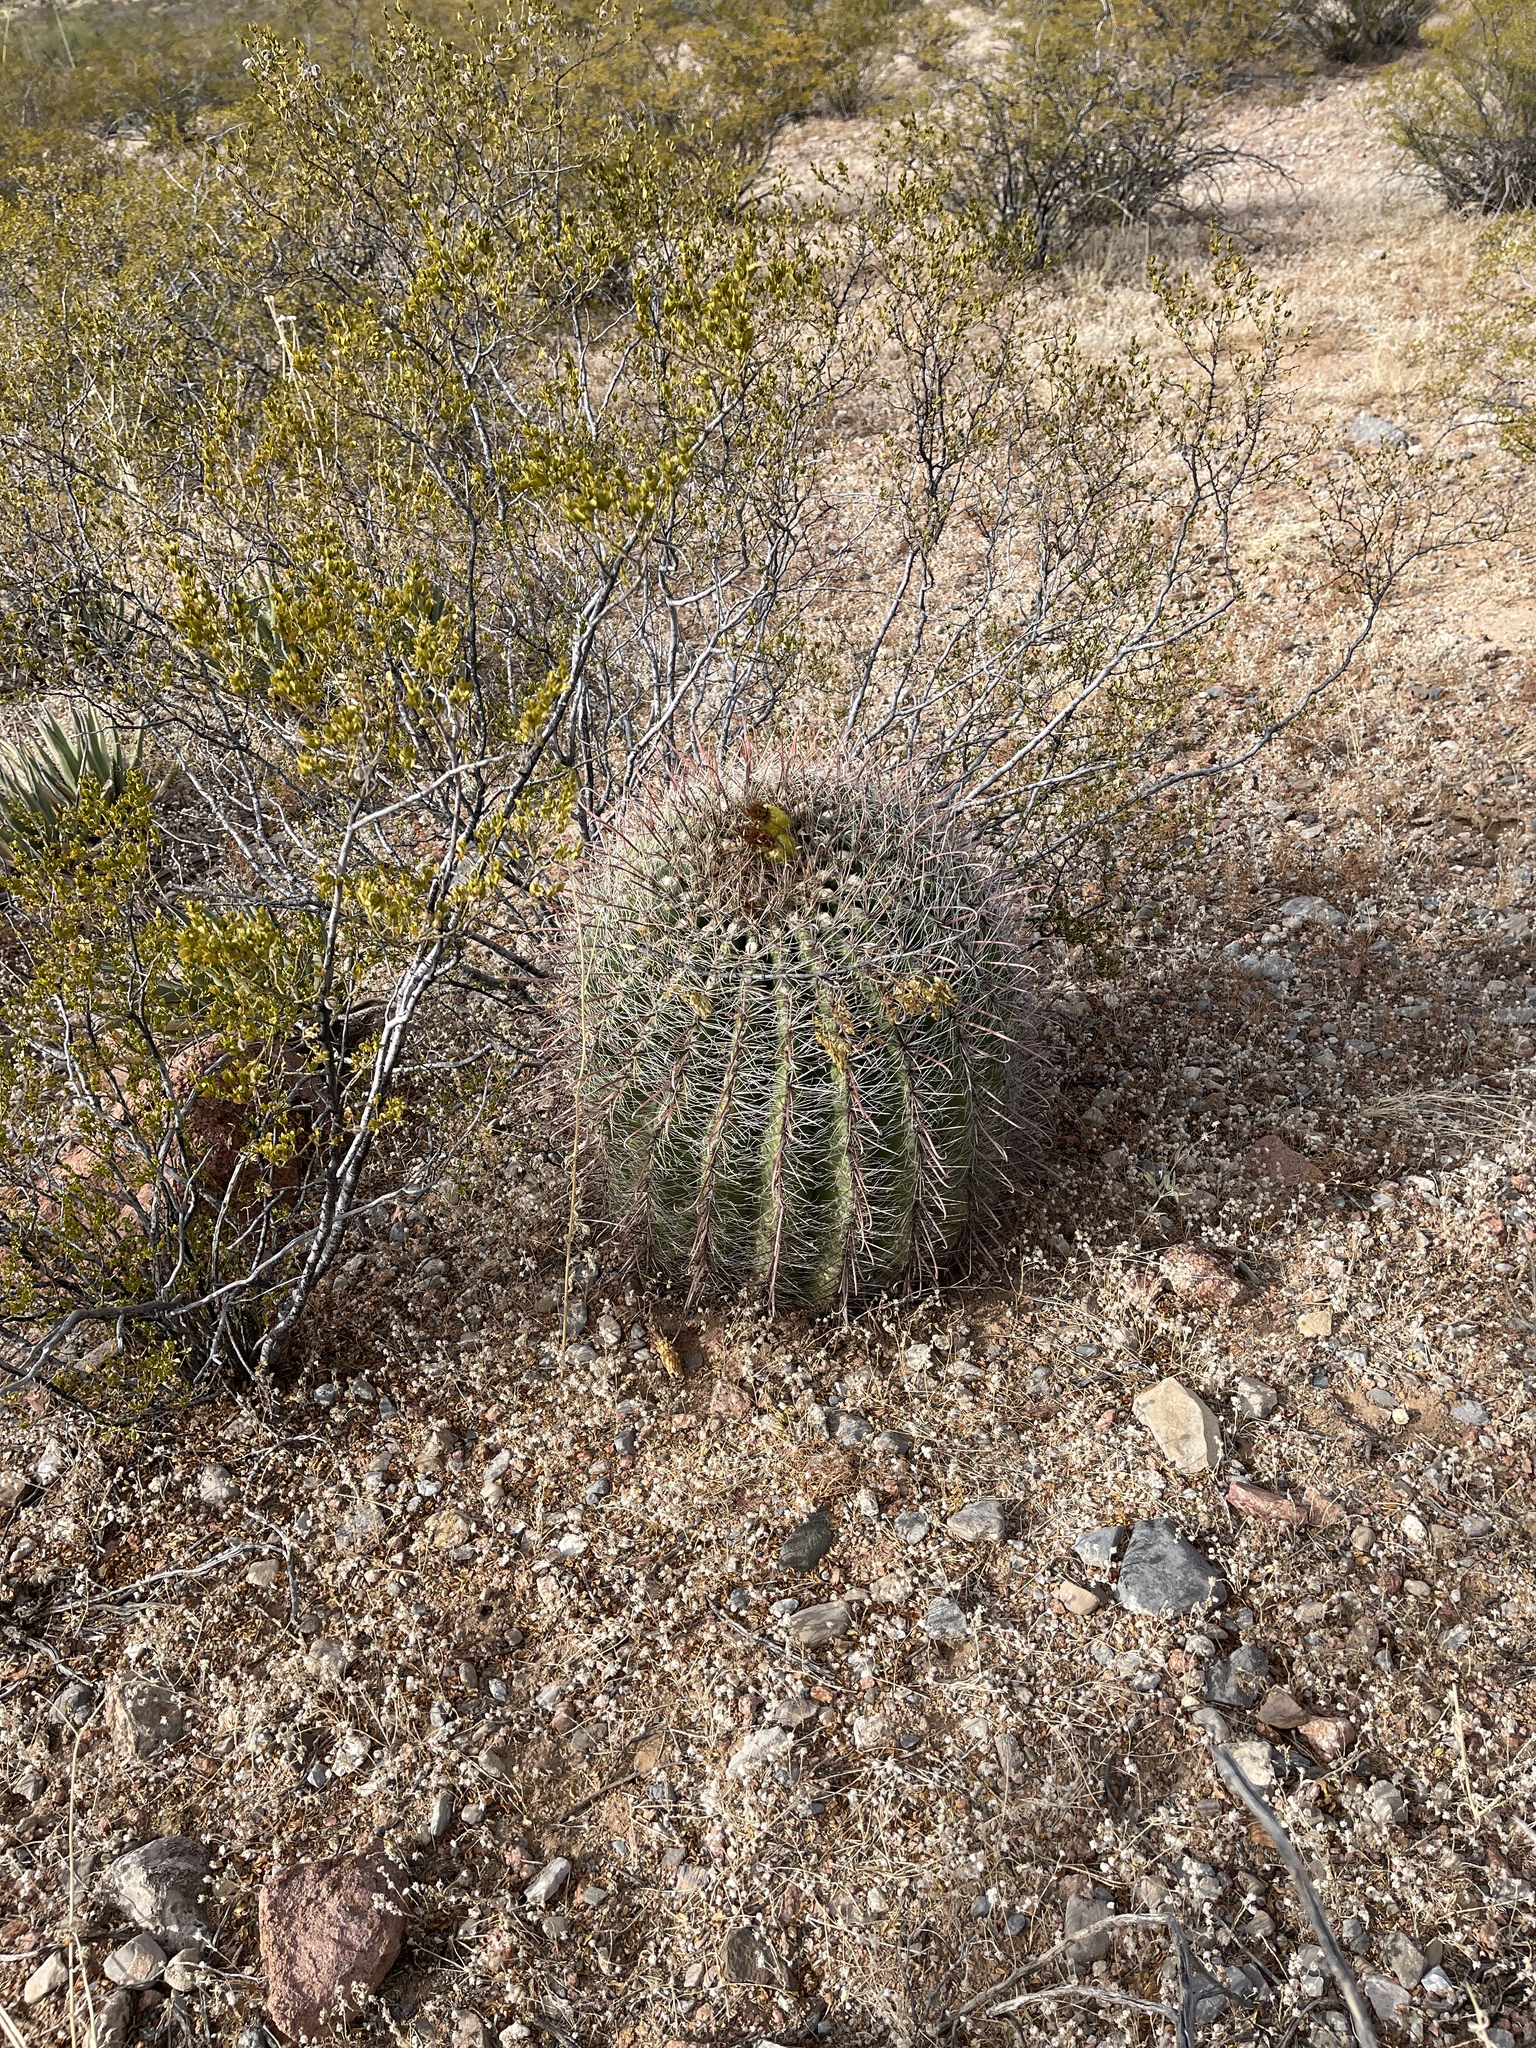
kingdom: Plantae
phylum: Tracheophyta
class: Magnoliopsida
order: Caryophyllales
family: Cactaceae
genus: Ferocactus
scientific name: Ferocactus wislizeni
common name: Candy barrel cactus
